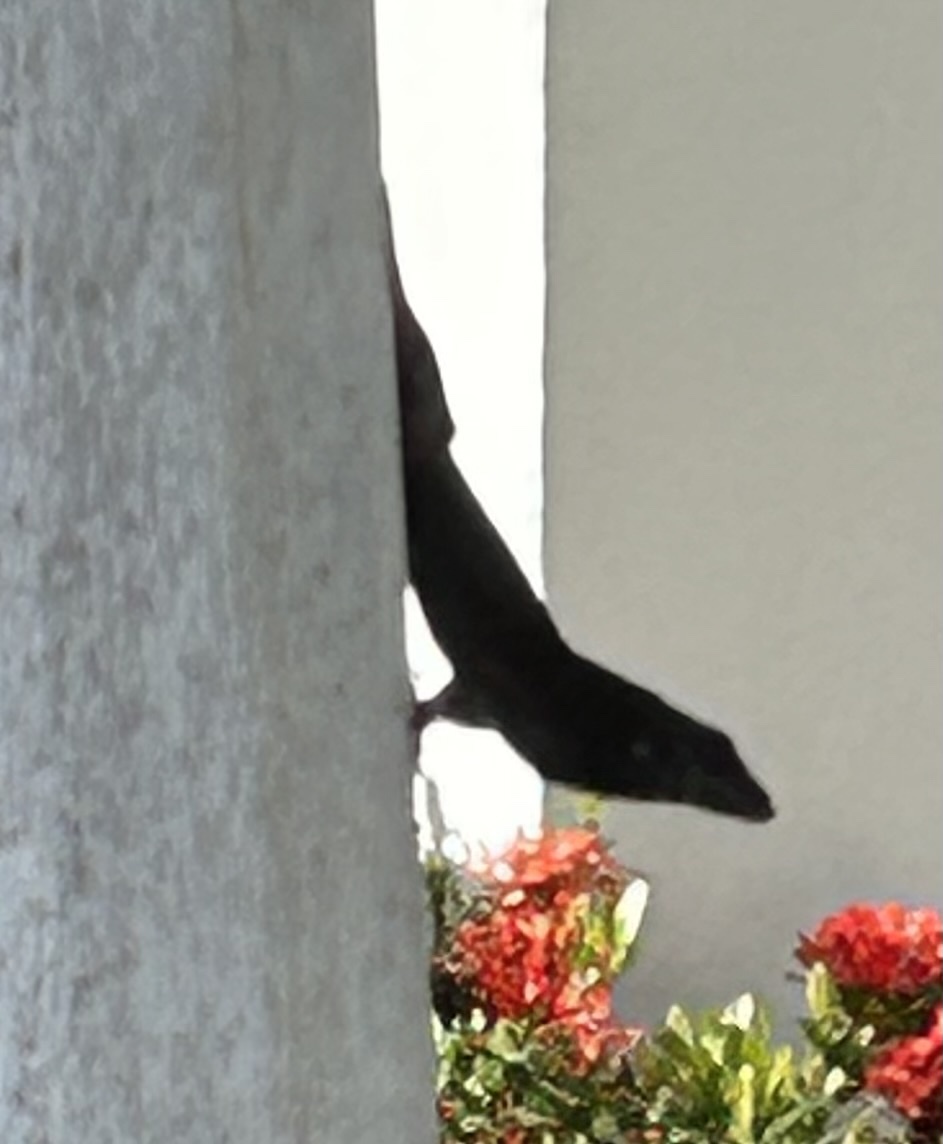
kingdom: Animalia
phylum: Chordata
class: Squamata
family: Dactyloidae
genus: Anolis
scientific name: Anolis sagrei
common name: Brown anole
